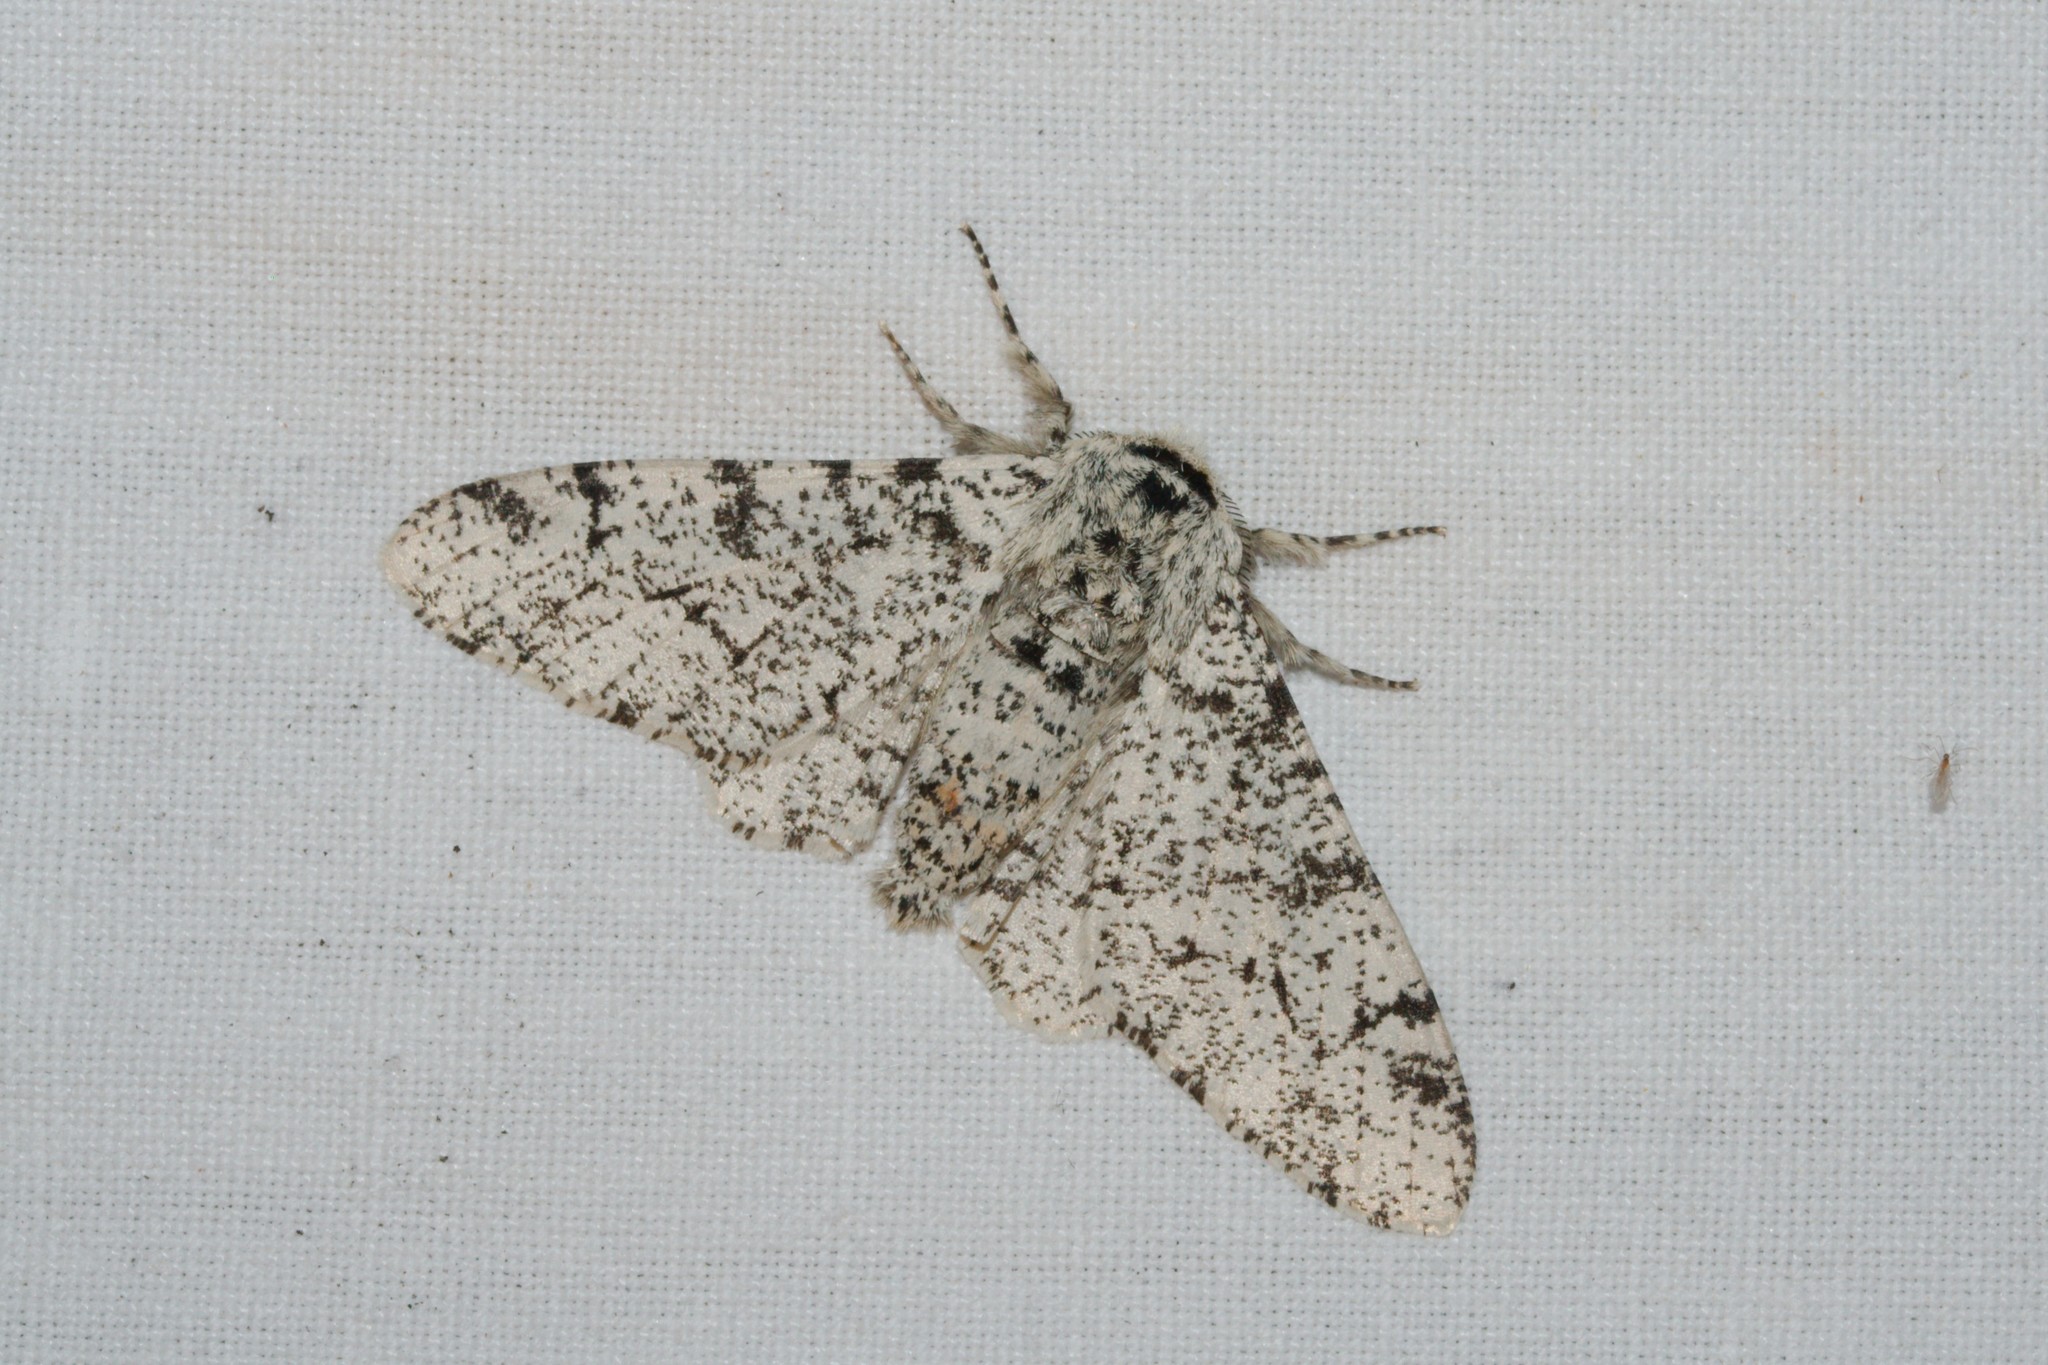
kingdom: Animalia
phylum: Arthropoda
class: Insecta
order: Lepidoptera
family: Geometridae
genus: Biston
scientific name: Biston betularia
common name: Peppered moth
